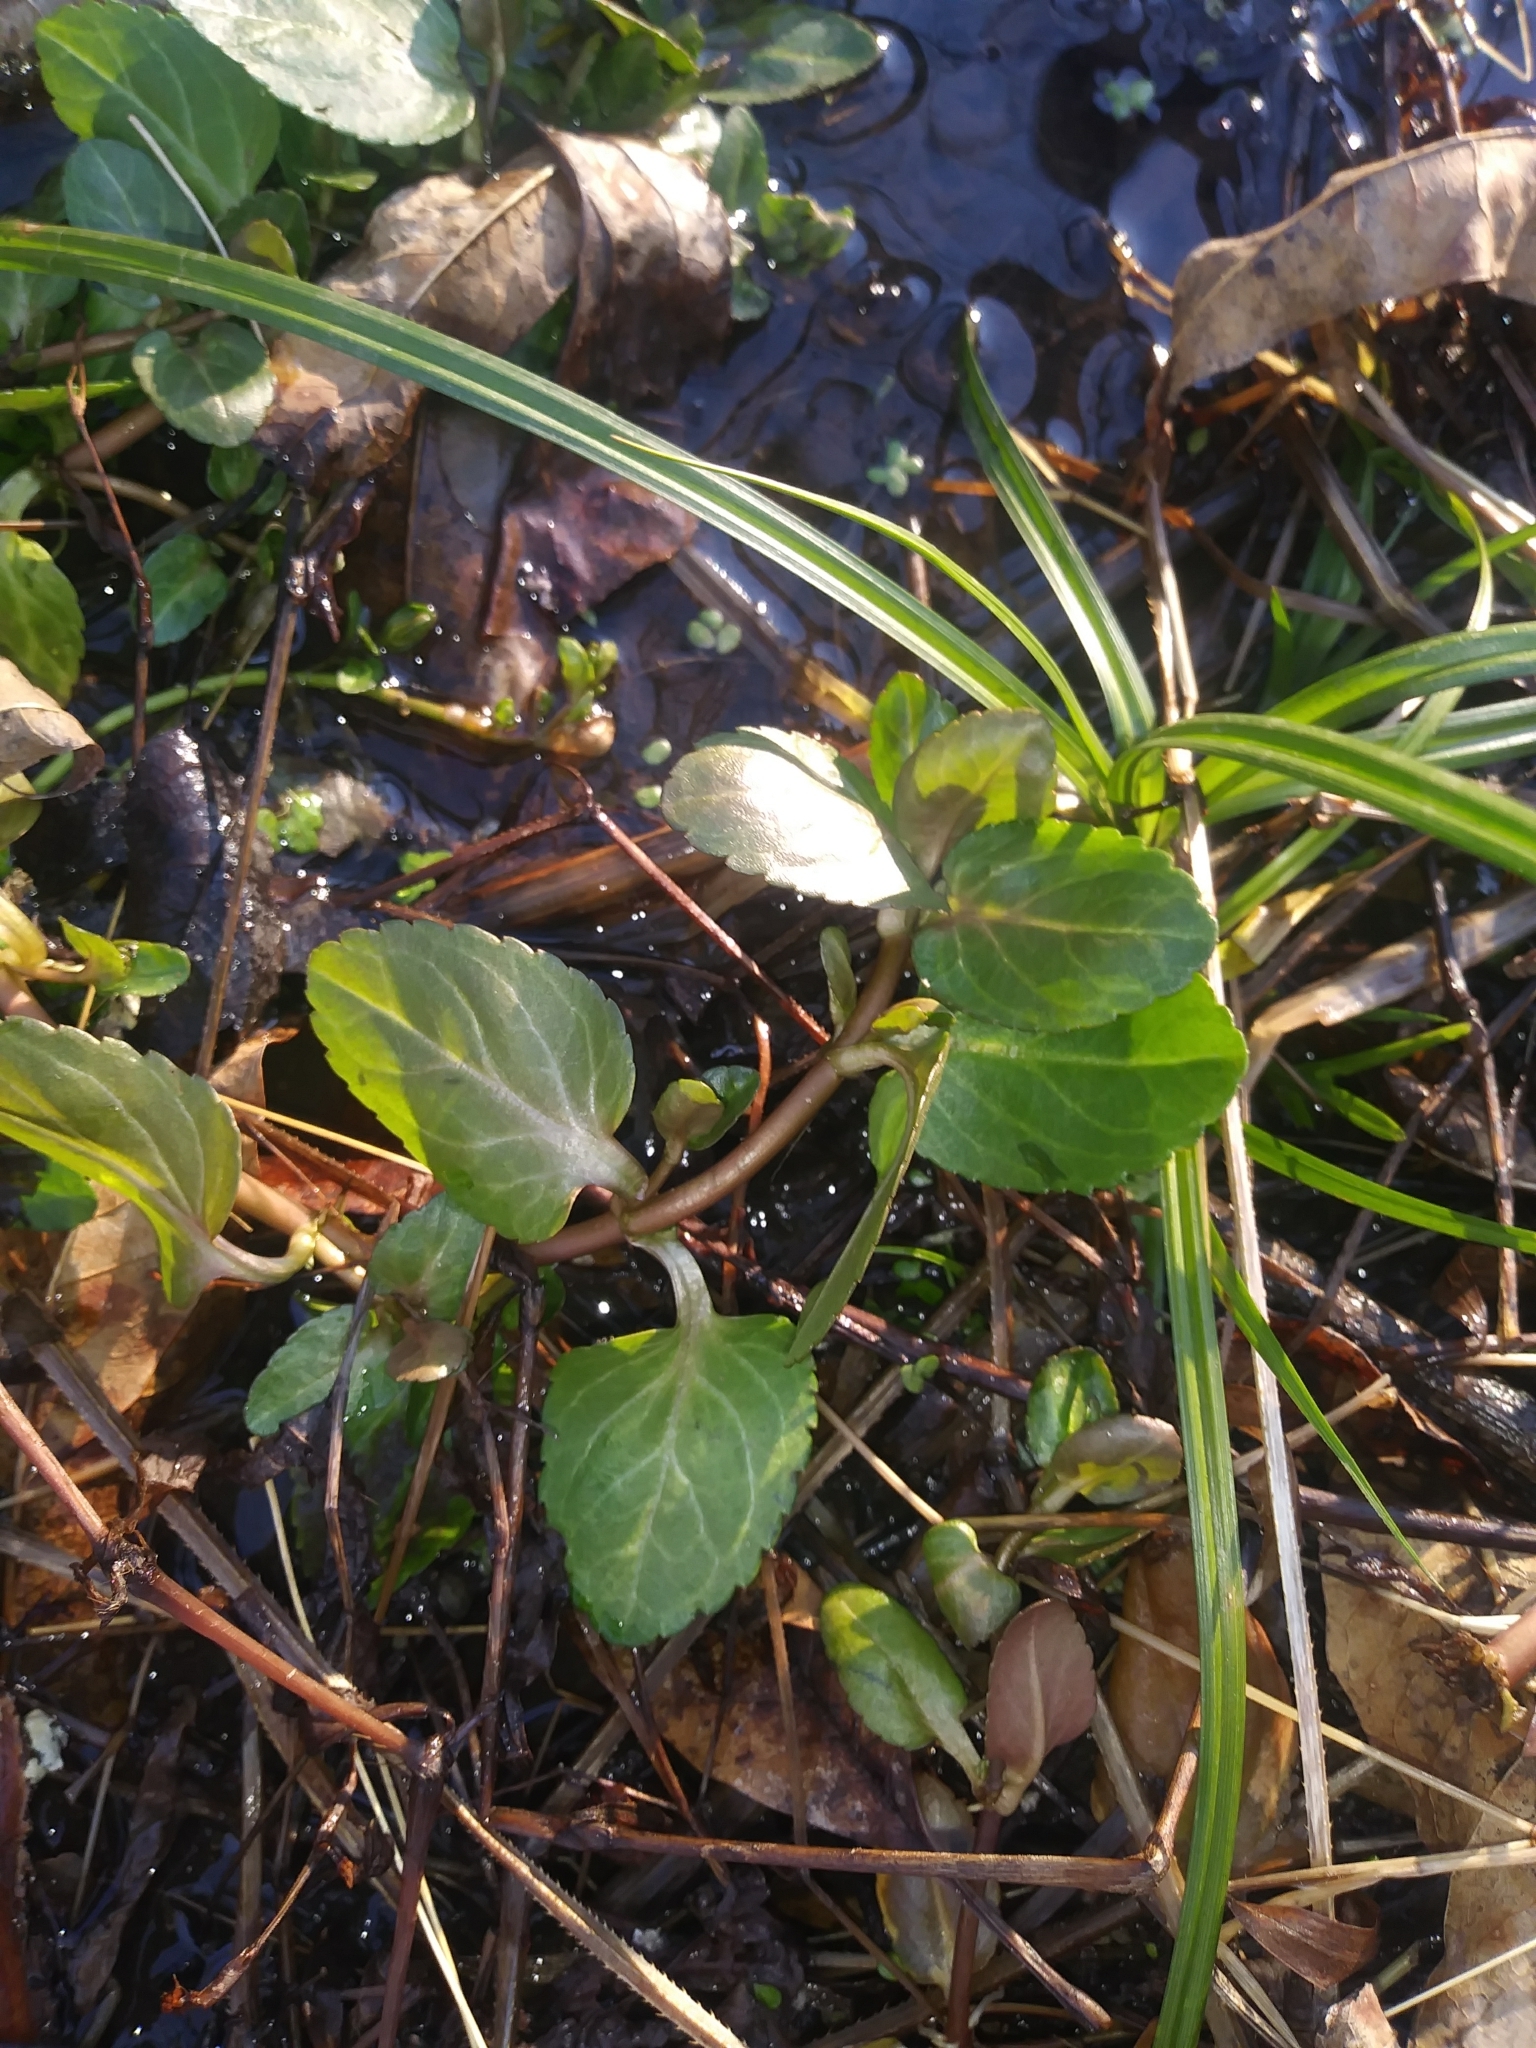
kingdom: Plantae
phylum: Tracheophyta
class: Magnoliopsida
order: Lamiales
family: Plantaginaceae
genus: Veronica
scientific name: Veronica americana
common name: American brooklime
